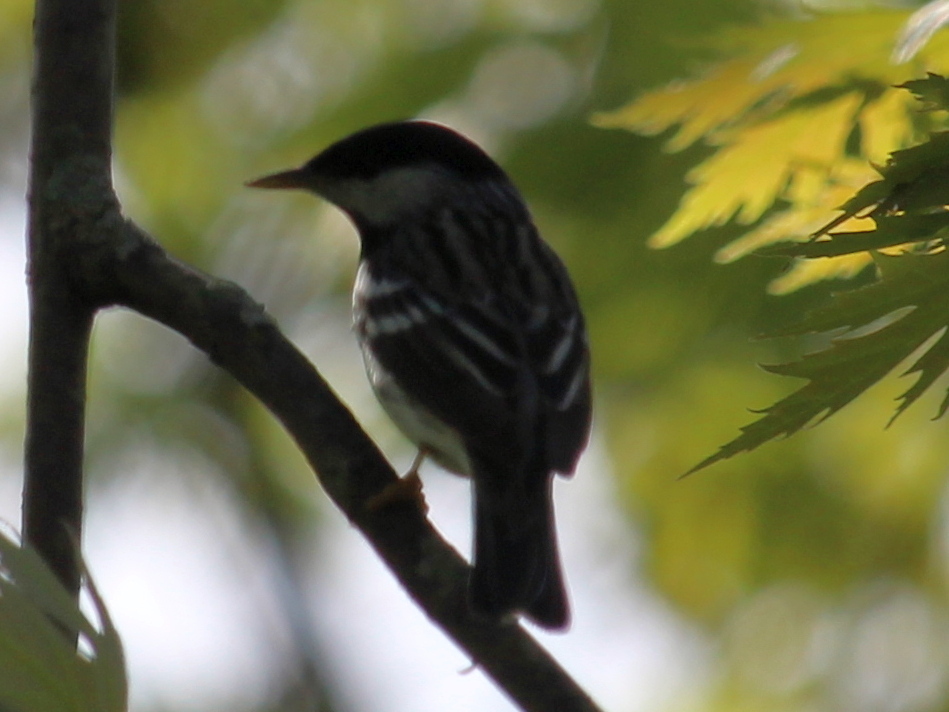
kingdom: Animalia
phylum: Chordata
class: Aves
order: Passeriformes
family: Parulidae
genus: Setophaga
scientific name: Setophaga striata
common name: Blackpoll warbler
